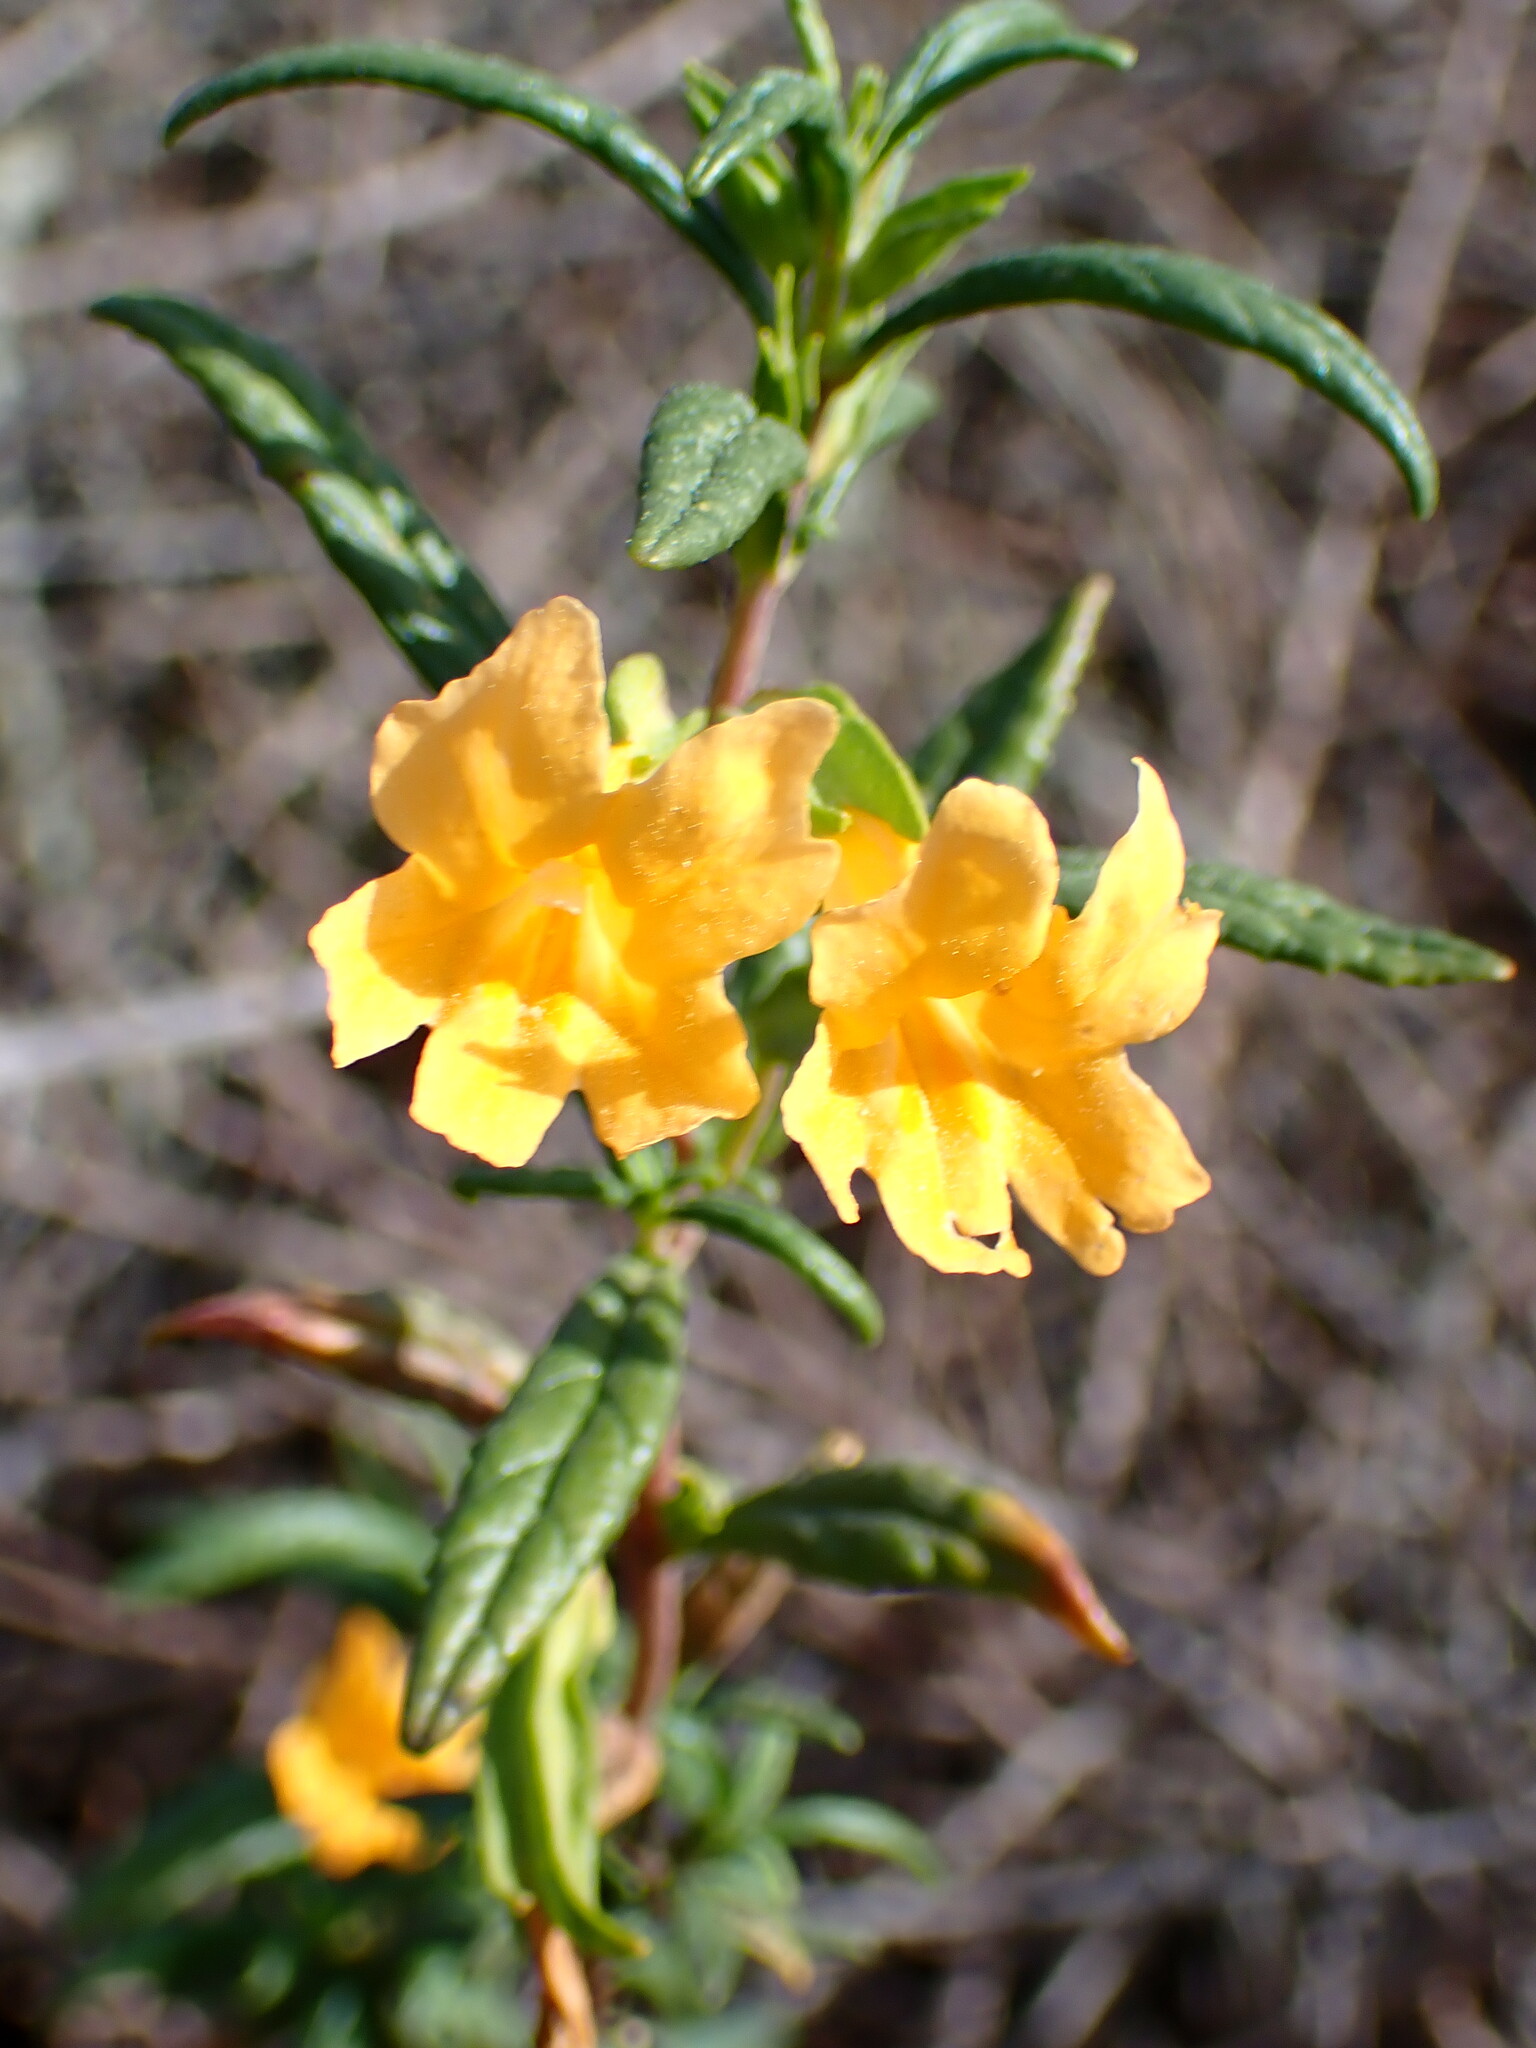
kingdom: Plantae
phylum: Tracheophyta
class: Magnoliopsida
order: Lamiales
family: Phrymaceae
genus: Diplacus
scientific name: Diplacus aurantiacus
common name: Bush monkey-flower
